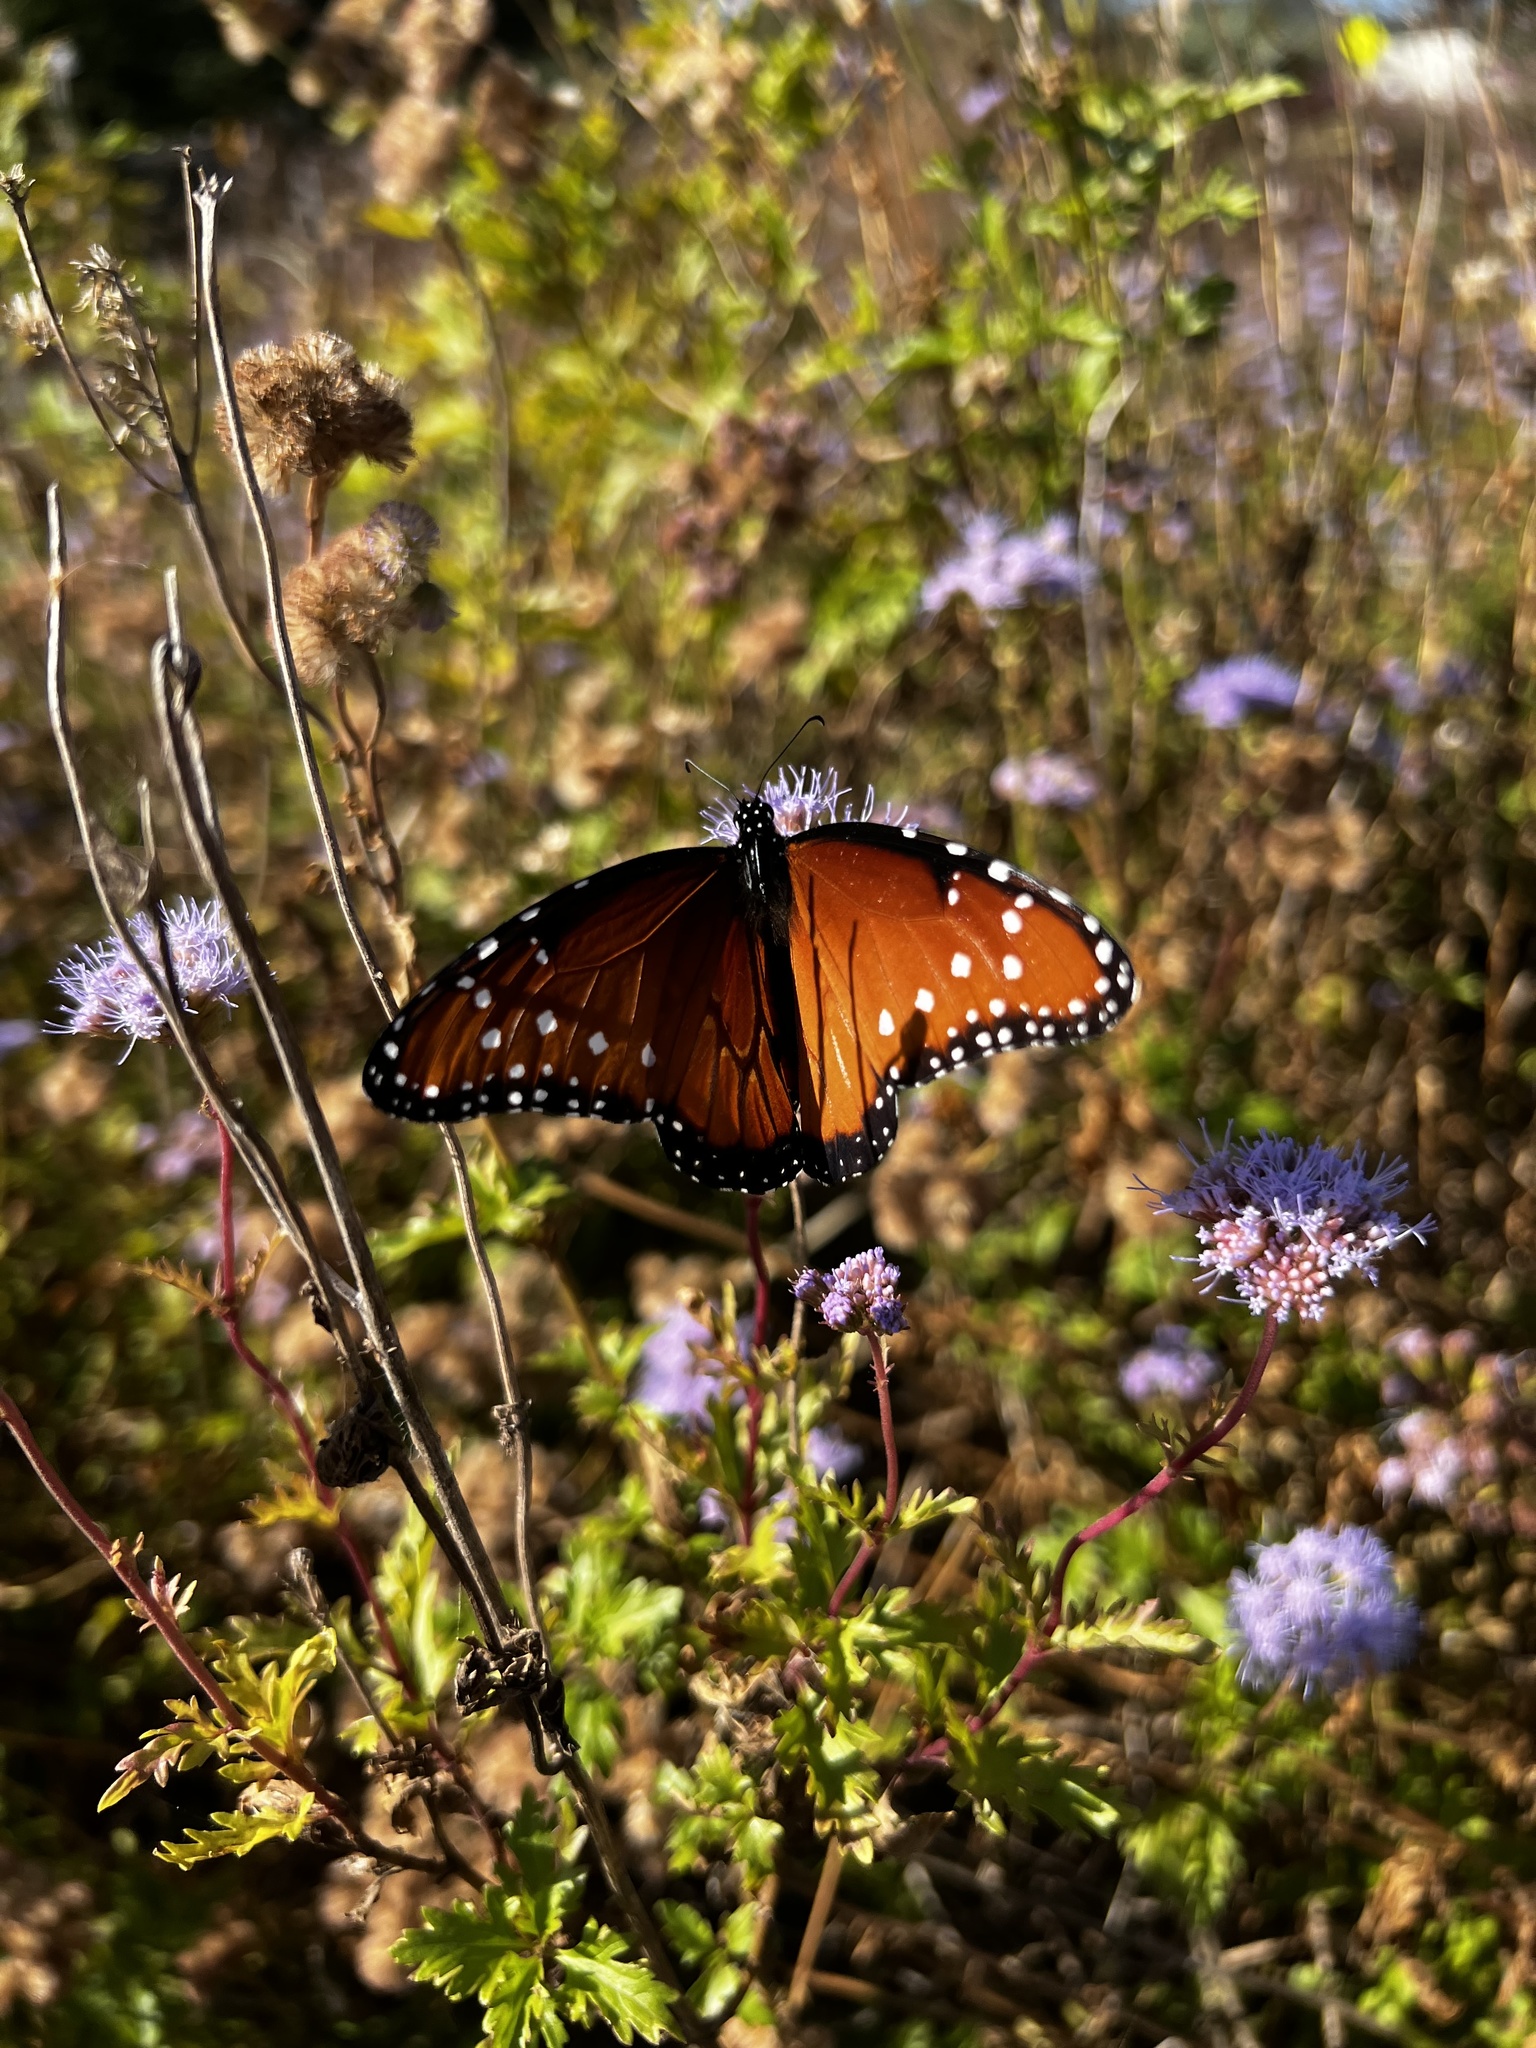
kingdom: Animalia
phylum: Arthropoda
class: Insecta
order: Lepidoptera
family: Nymphalidae
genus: Danaus
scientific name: Danaus gilippus
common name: Queen
